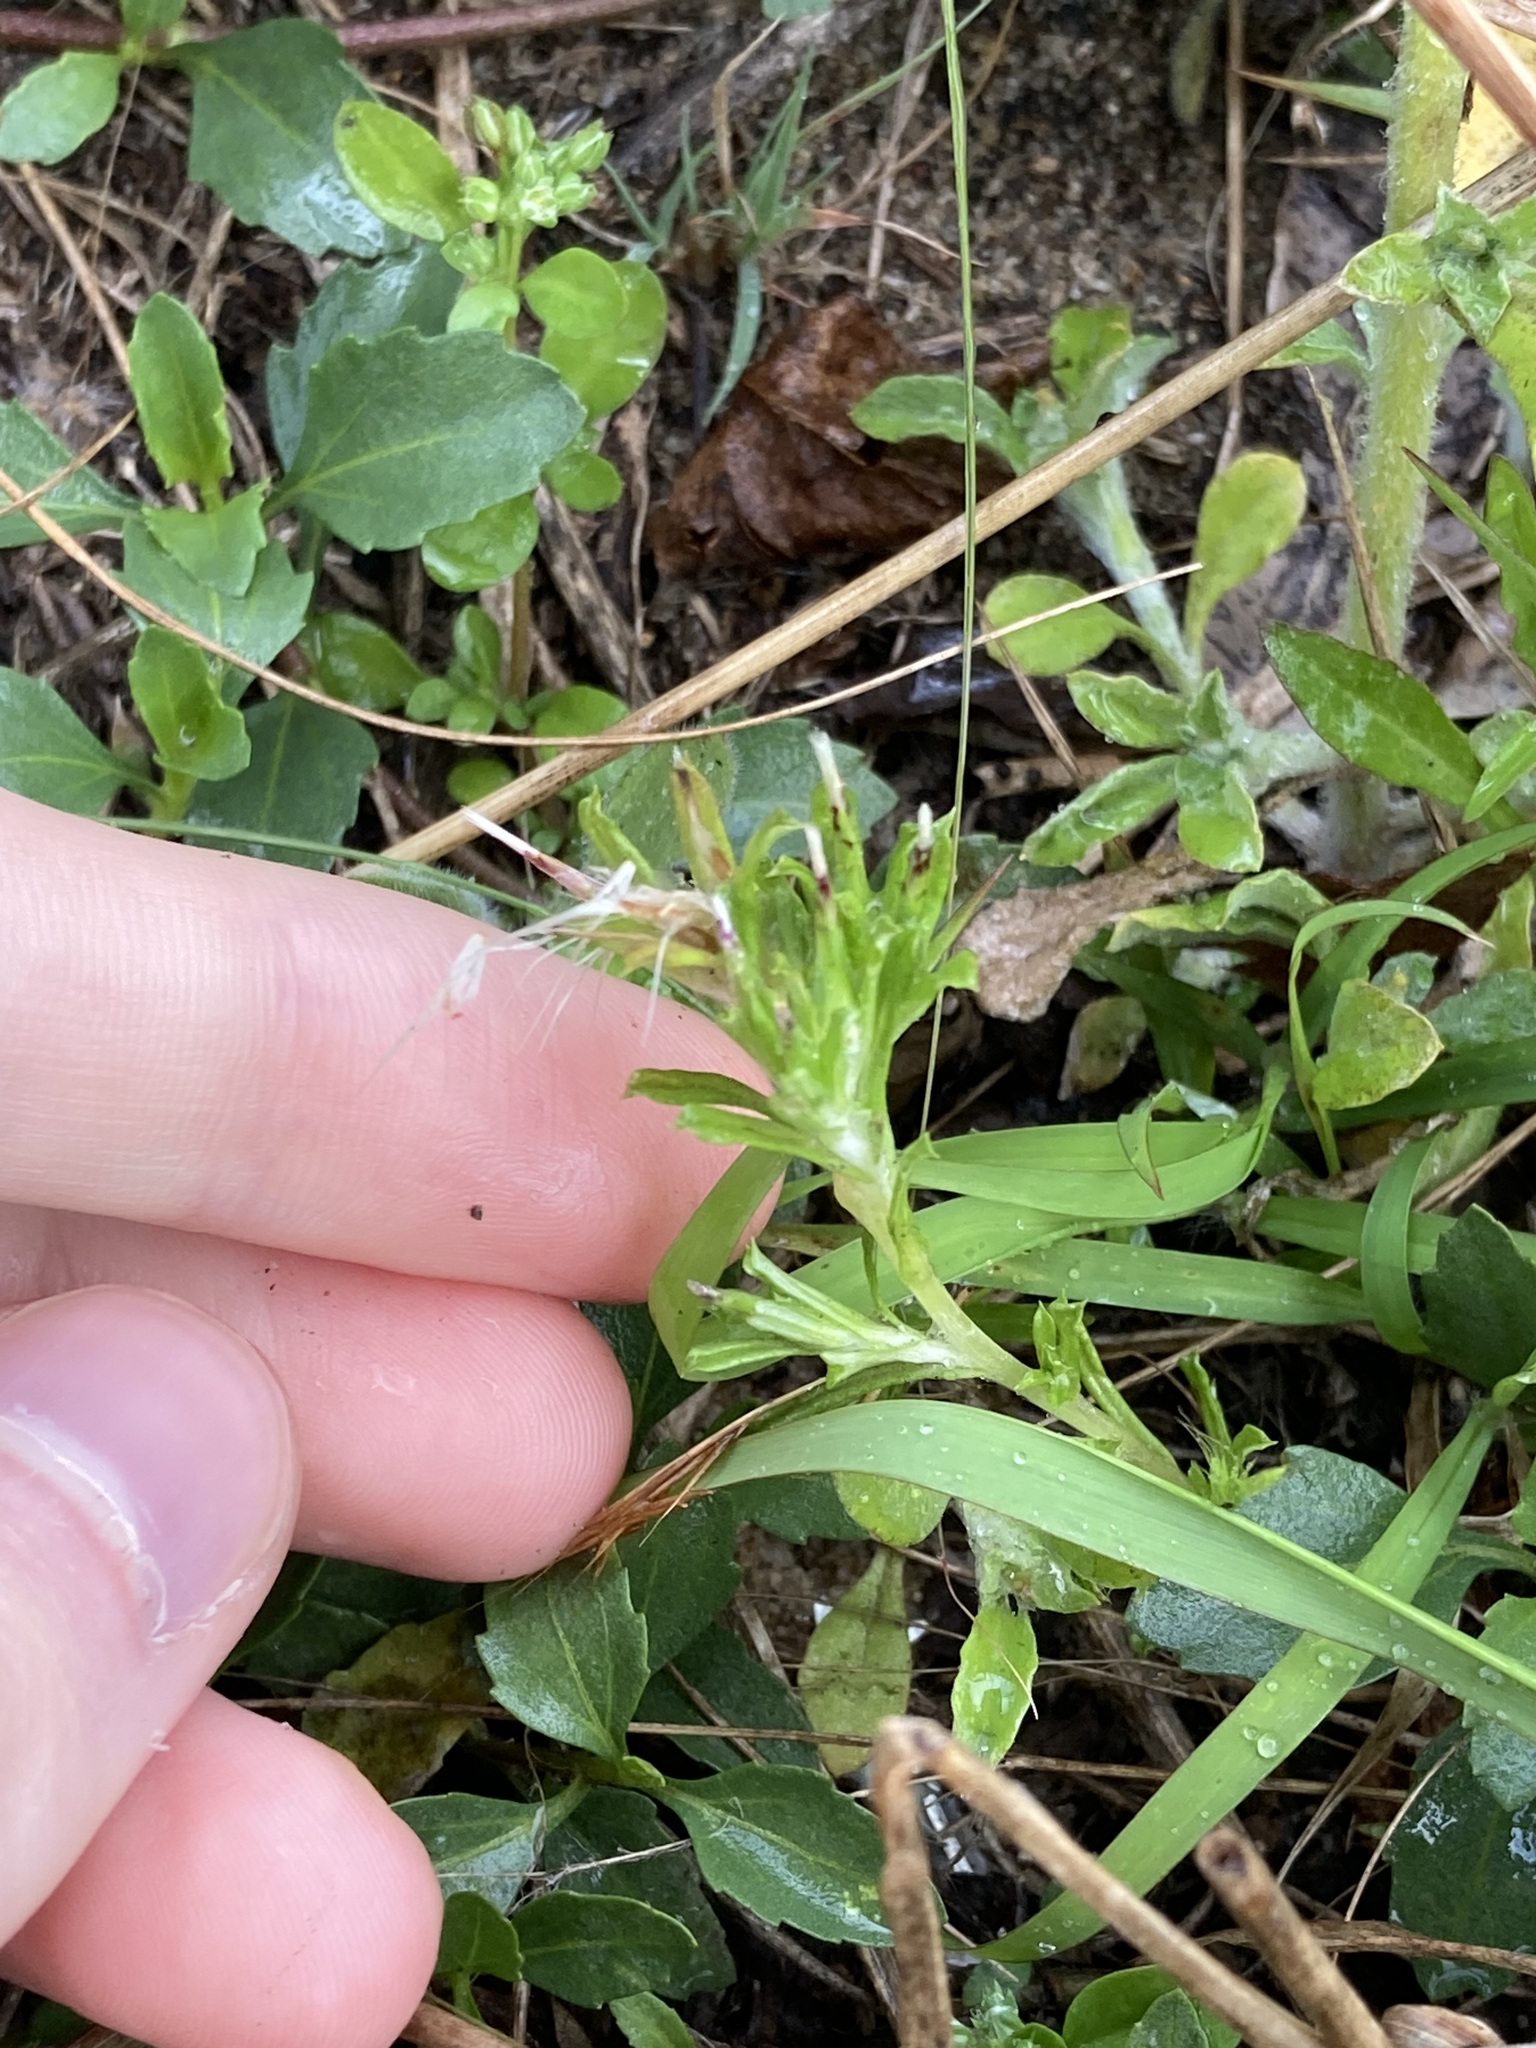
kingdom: Plantae
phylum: Tracheophyta
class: Magnoliopsida
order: Asterales
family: Asteraceae
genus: Facelis
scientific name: Facelis retusa
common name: Annual trampweed
